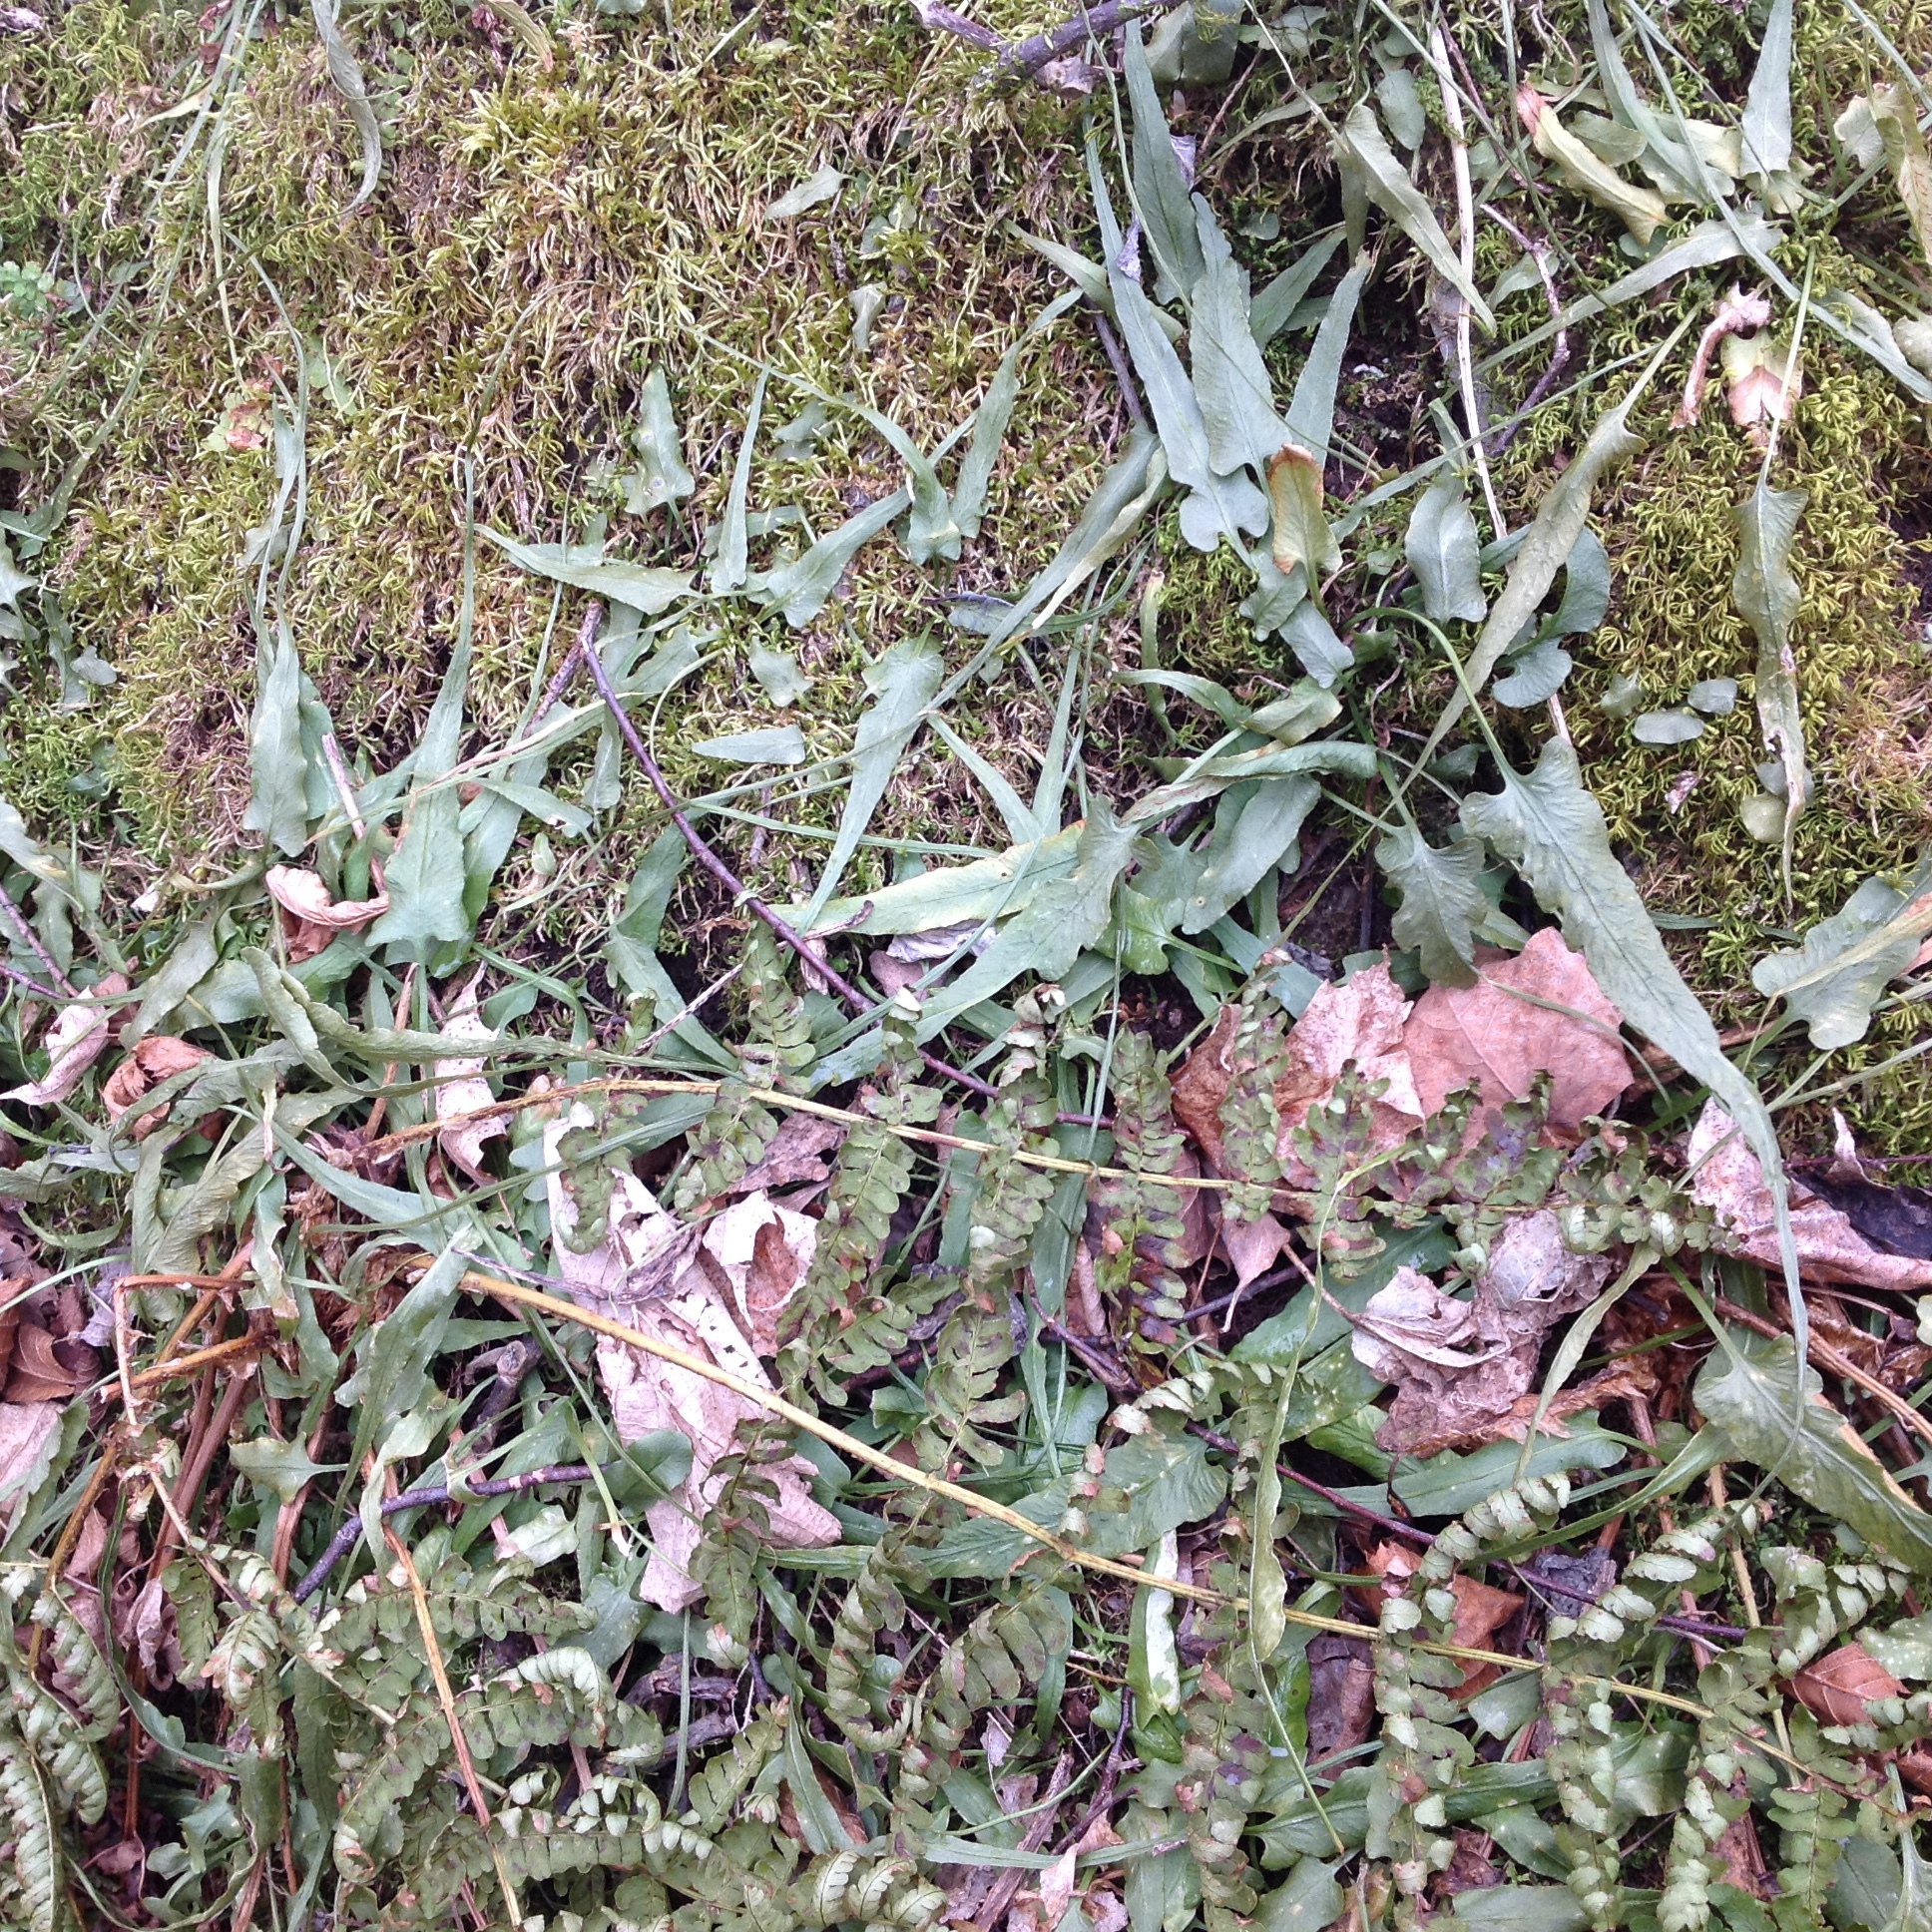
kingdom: Plantae
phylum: Tracheophyta
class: Polypodiopsida
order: Polypodiales
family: Aspleniaceae
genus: Asplenium
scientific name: Asplenium rhizophyllum
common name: Walking fern
